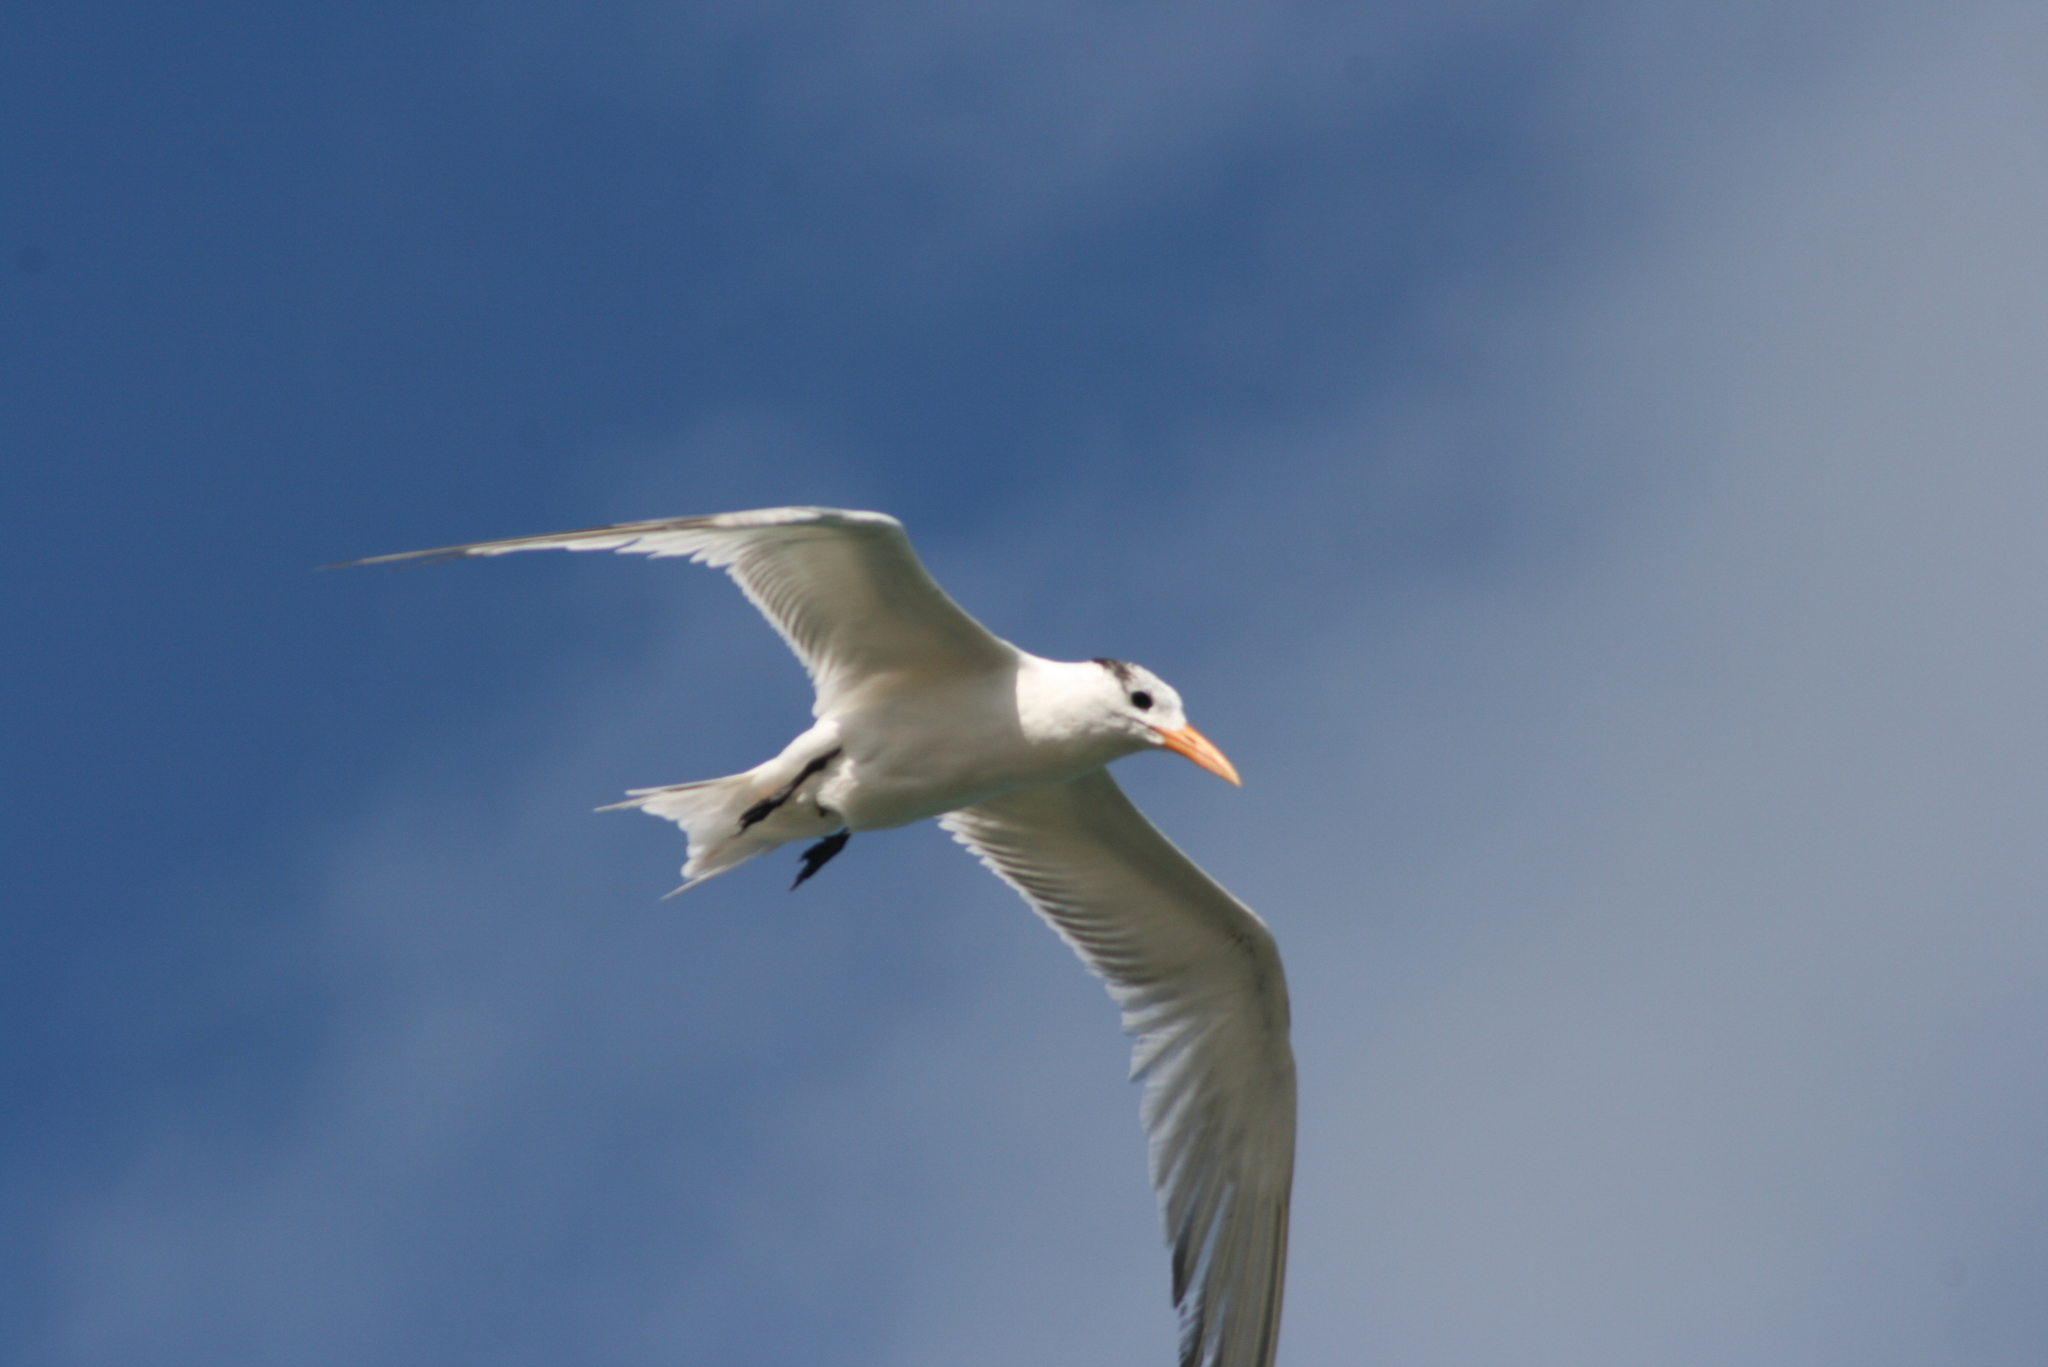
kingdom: Animalia
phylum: Chordata
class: Aves
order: Charadriiformes
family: Laridae
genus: Thalasseus
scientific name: Thalasseus maximus
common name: Royal tern
